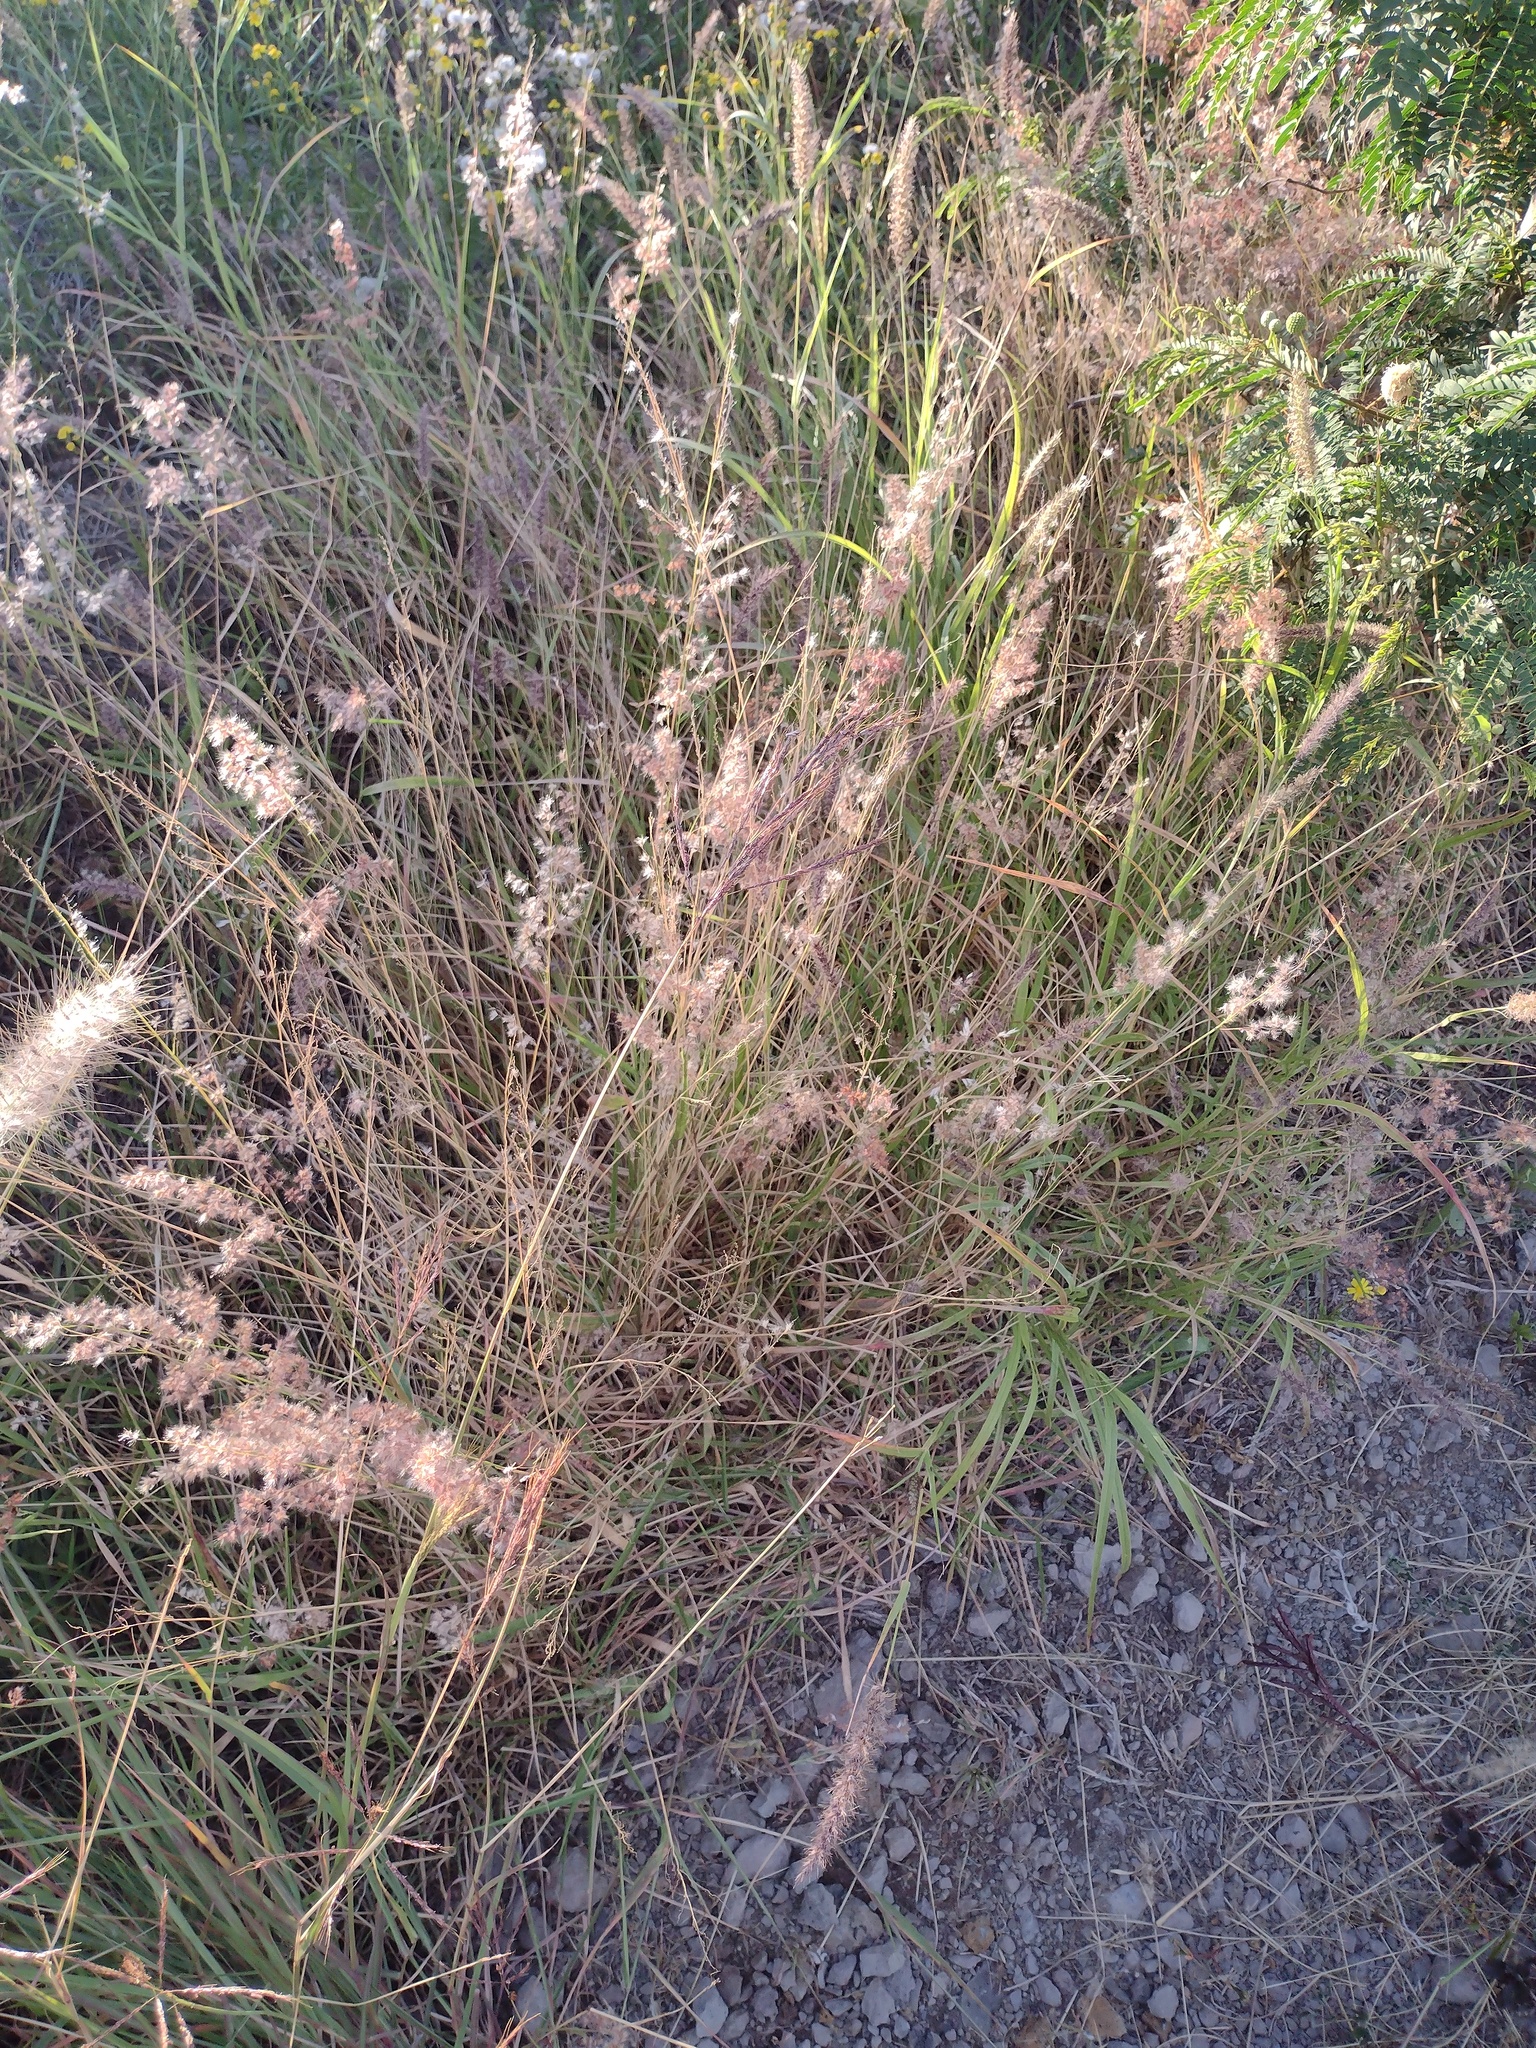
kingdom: Plantae
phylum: Tracheophyta
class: Liliopsida
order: Poales
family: Poaceae
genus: Melinis
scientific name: Melinis repens
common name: Rose natal grass
